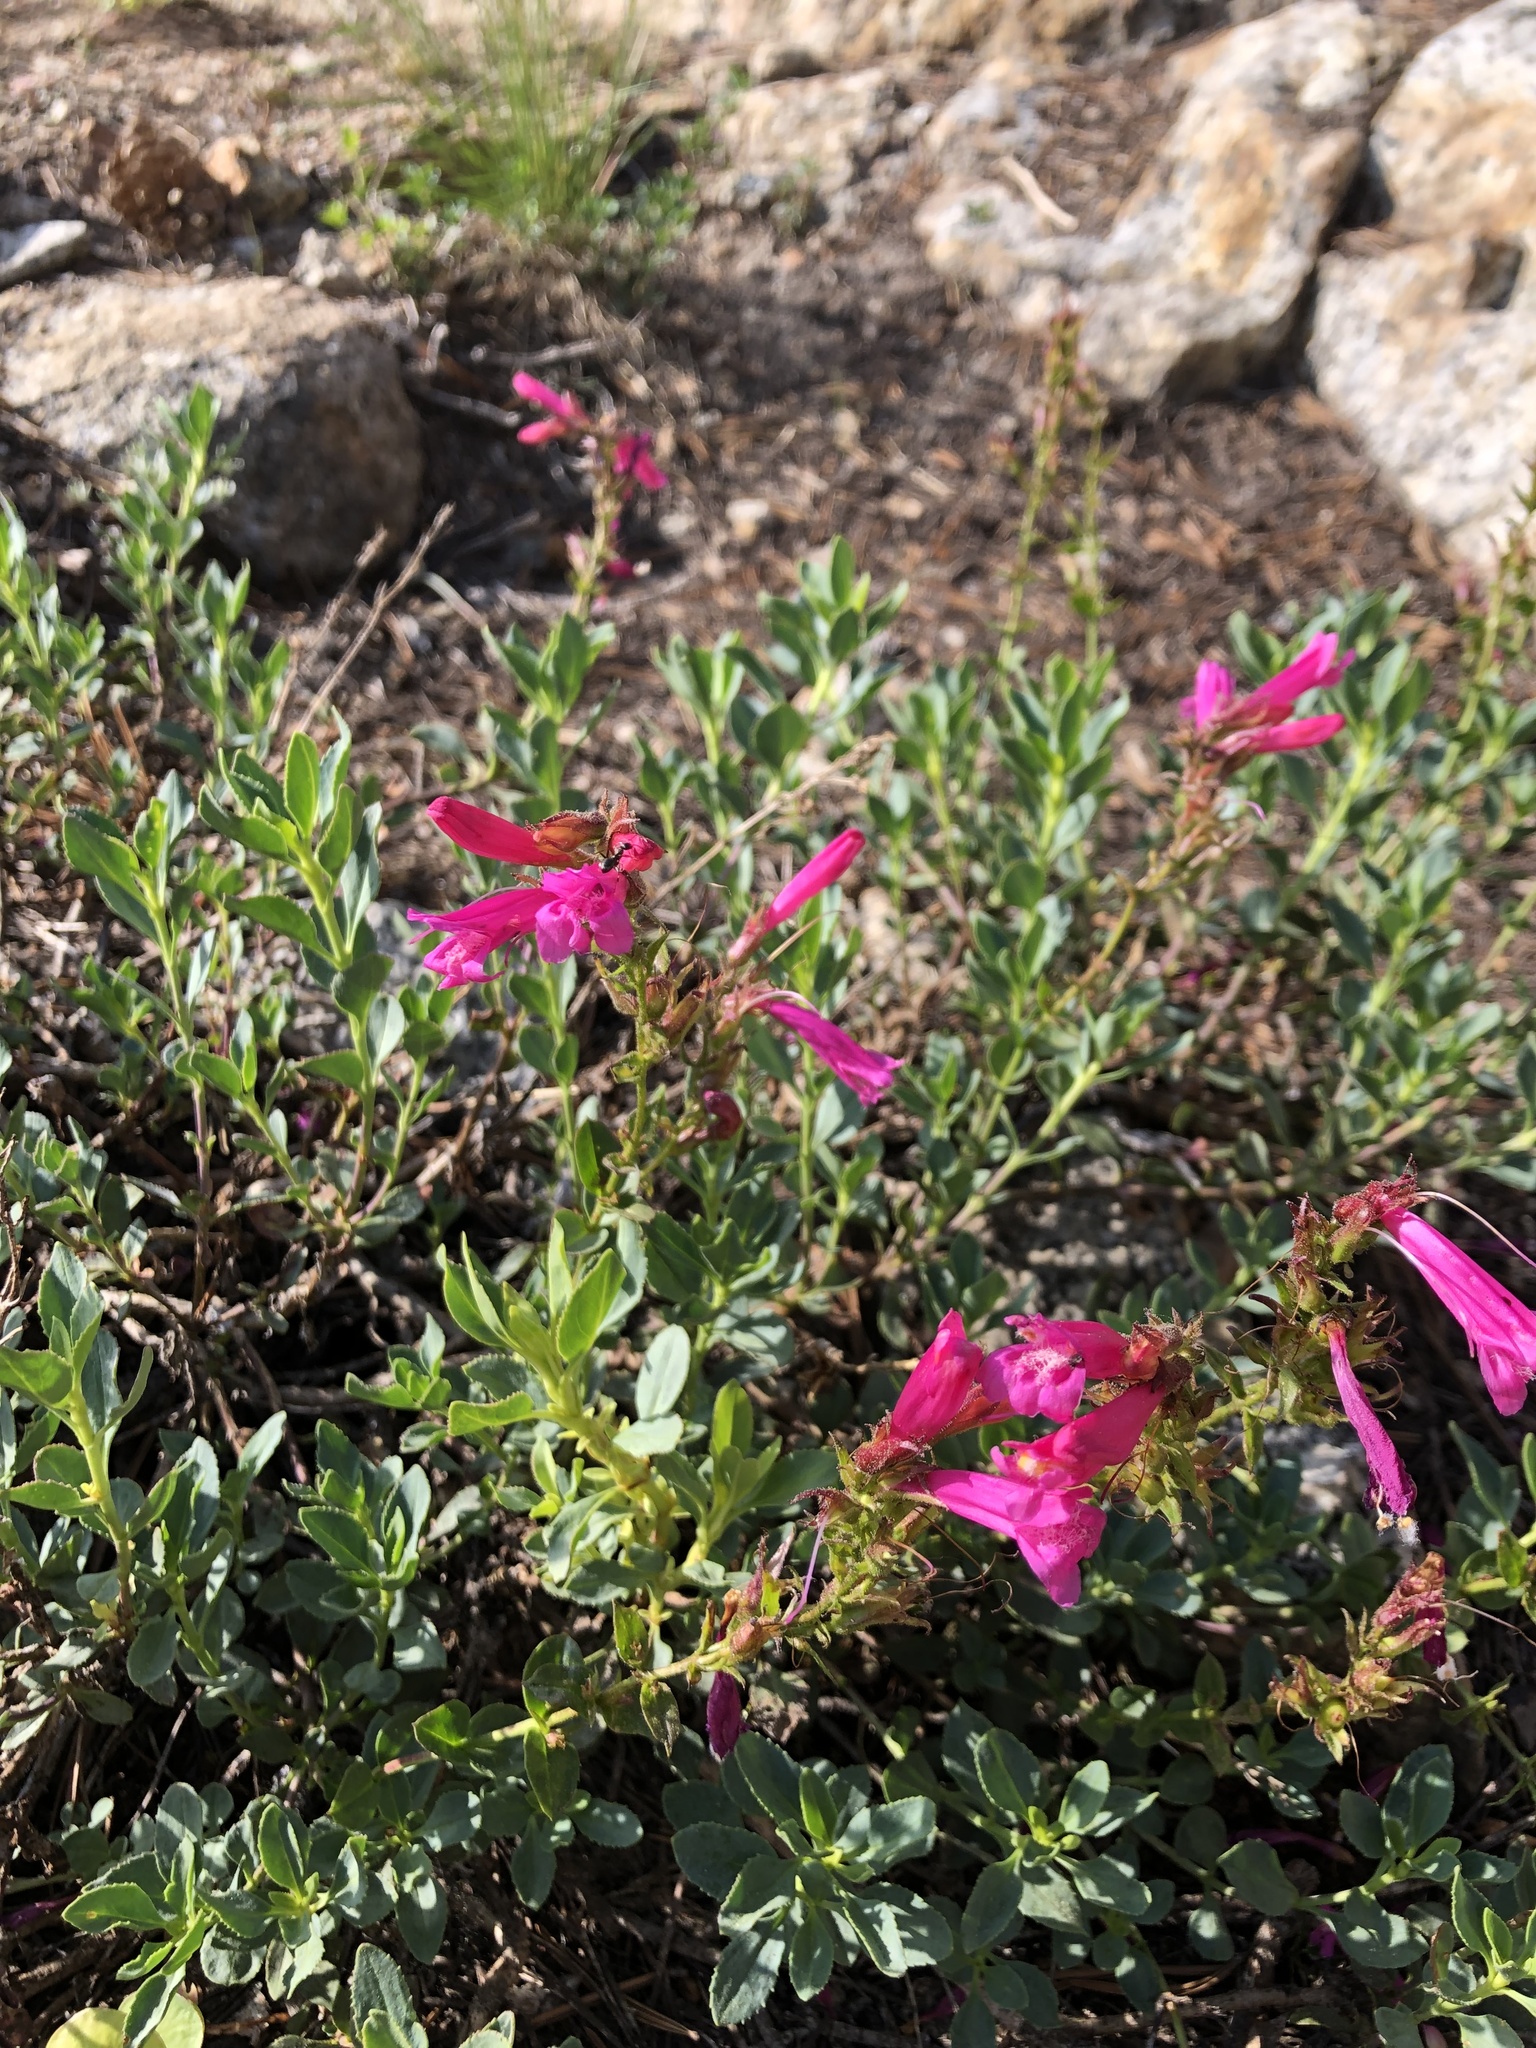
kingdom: Plantae
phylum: Tracheophyta
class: Magnoliopsida
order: Lamiales
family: Plantaginaceae
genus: Penstemon
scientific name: Penstemon newberryi
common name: Mountain-pride
